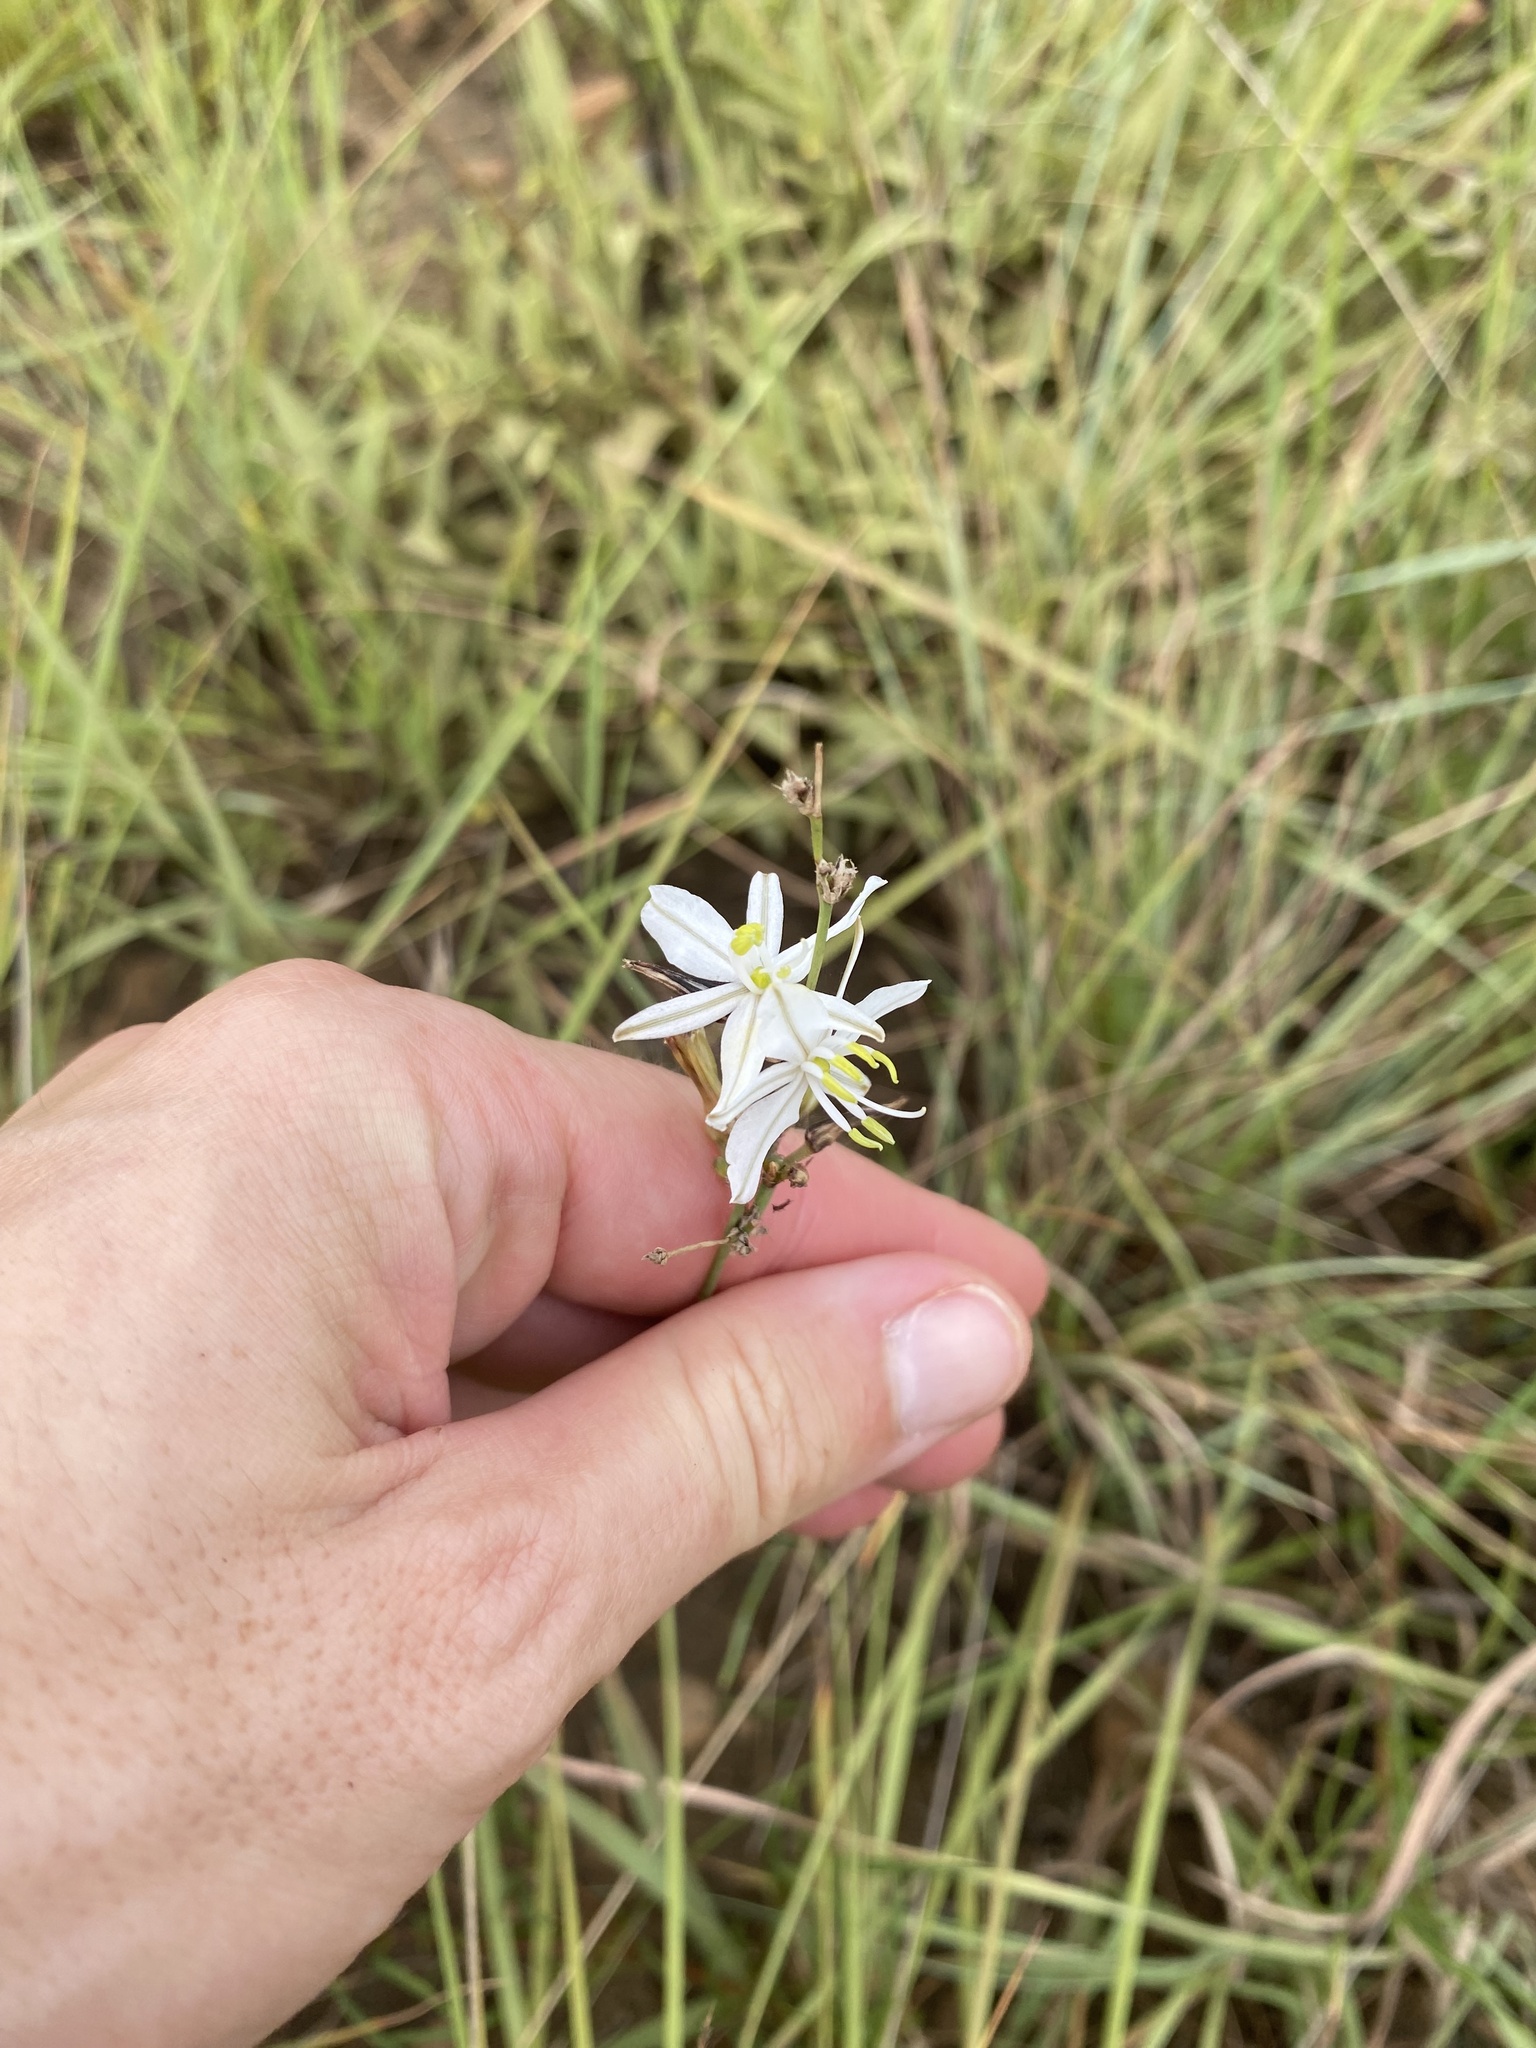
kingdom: Plantae
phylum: Tracheophyta
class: Liliopsida
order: Asparagales
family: Asparagaceae
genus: Chlorophytum
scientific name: Chlorophytum cooperi
